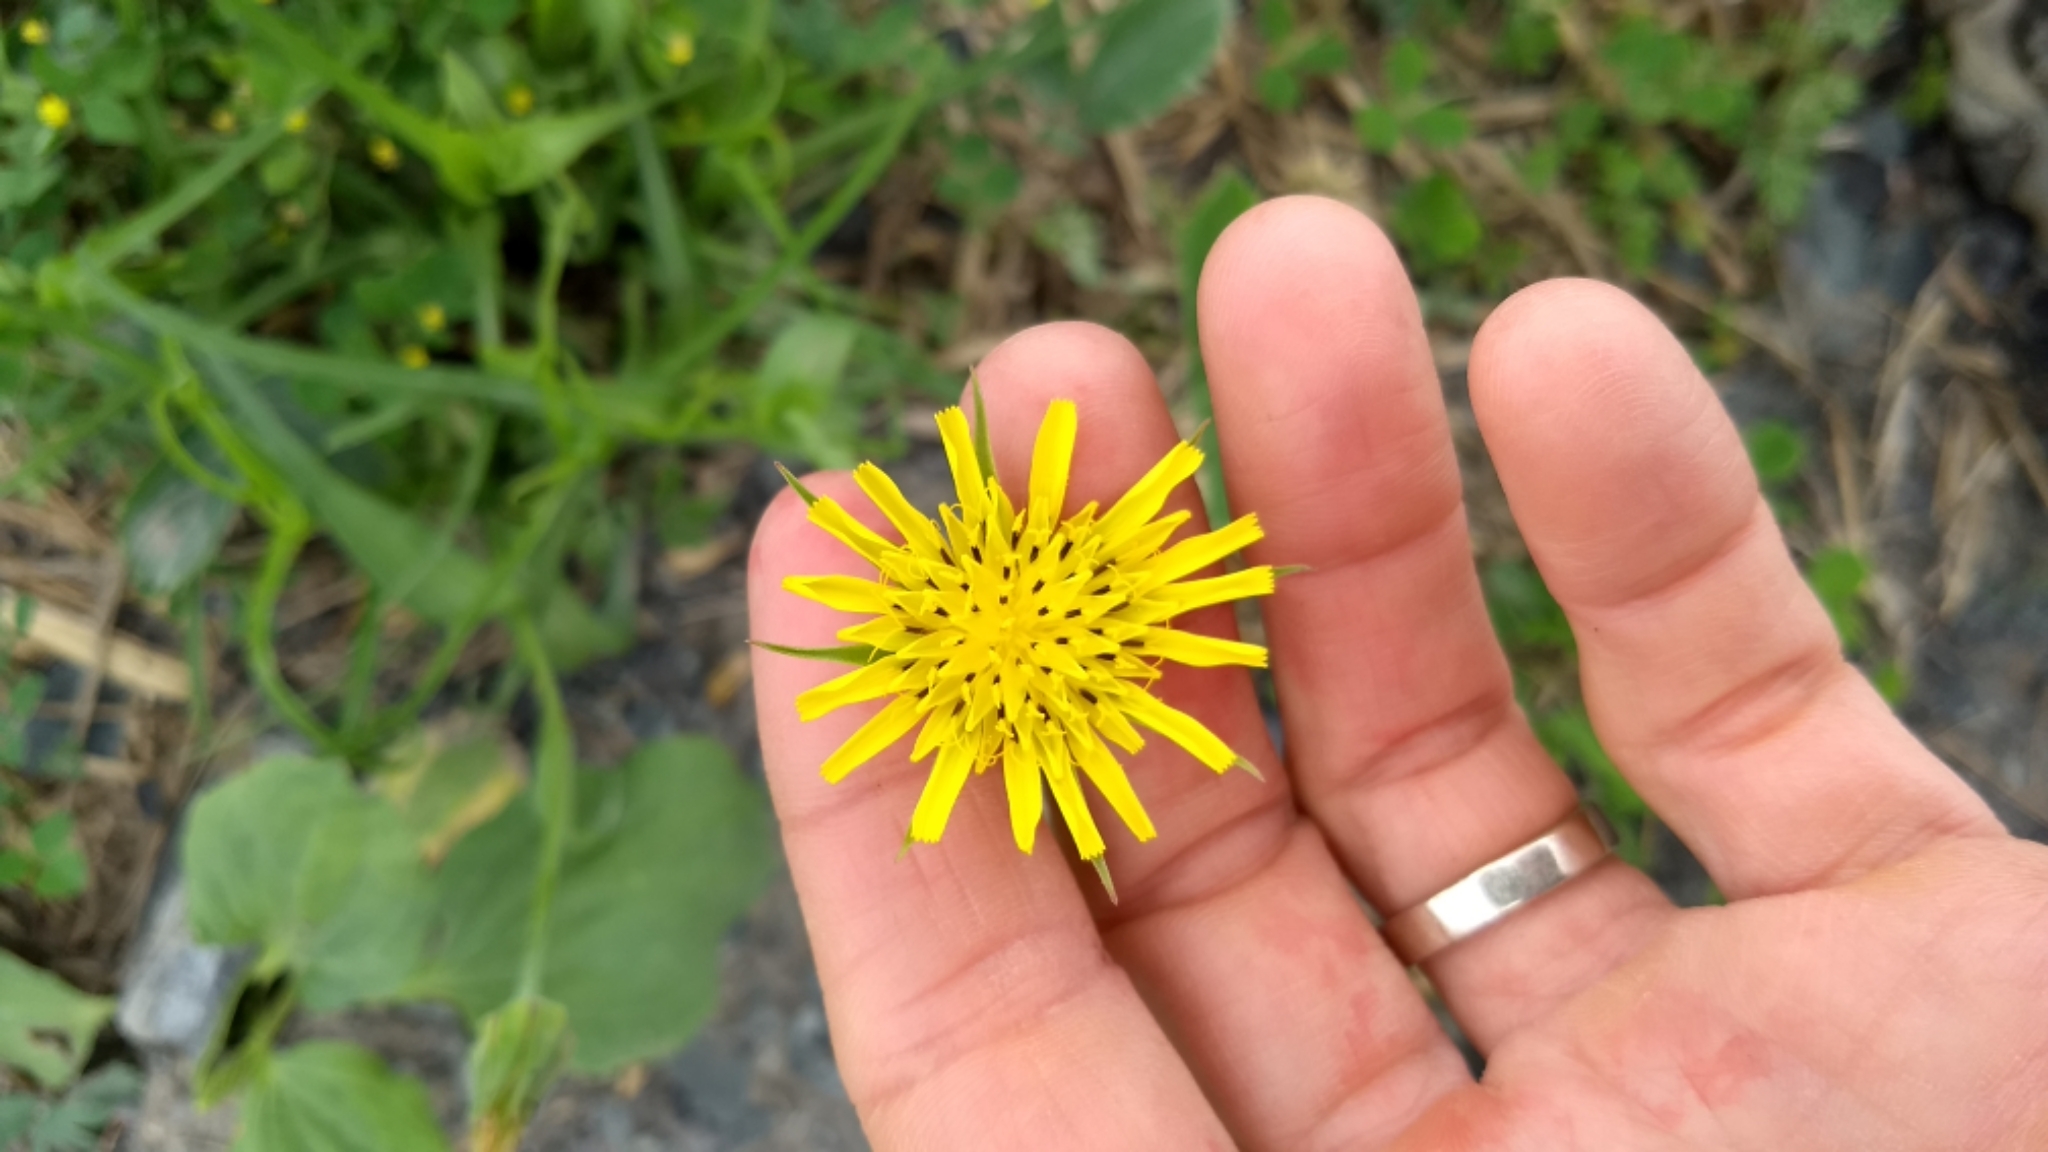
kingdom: Plantae
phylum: Tracheophyta
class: Magnoliopsida
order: Asterales
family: Asteraceae
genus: Tragopogon
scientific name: Tragopogon pratensis
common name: Goat's-beard
